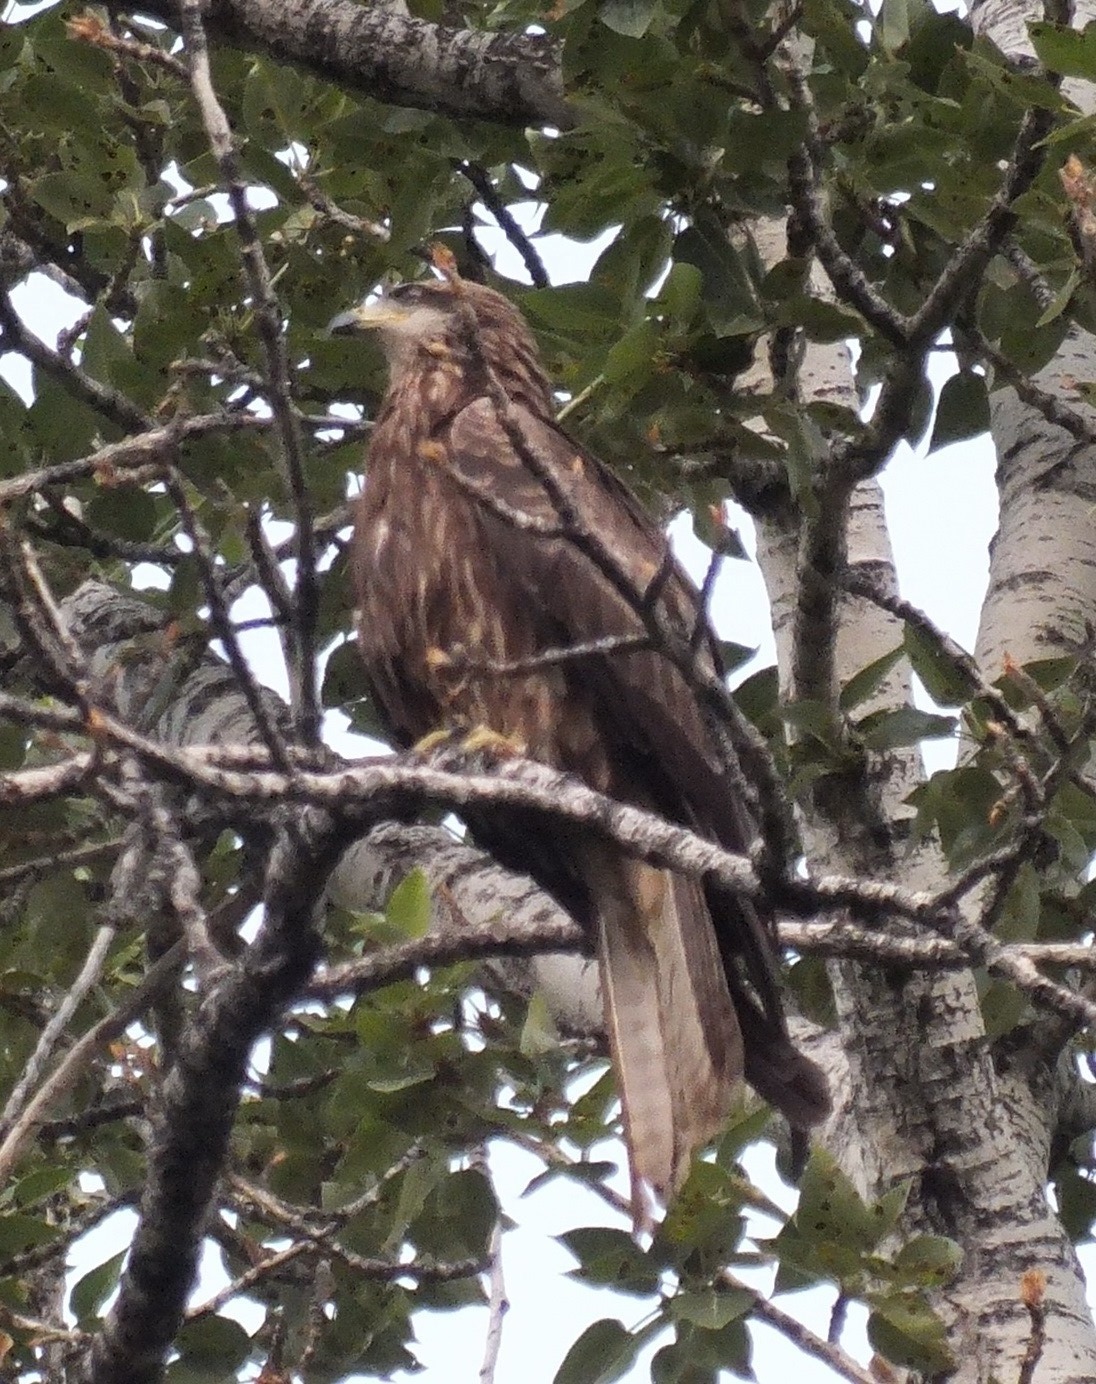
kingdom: Animalia
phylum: Chordata
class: Aves
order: Accipitriformes
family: Accipitridae
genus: Milvus
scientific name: Milvus migrans
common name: Black kite
